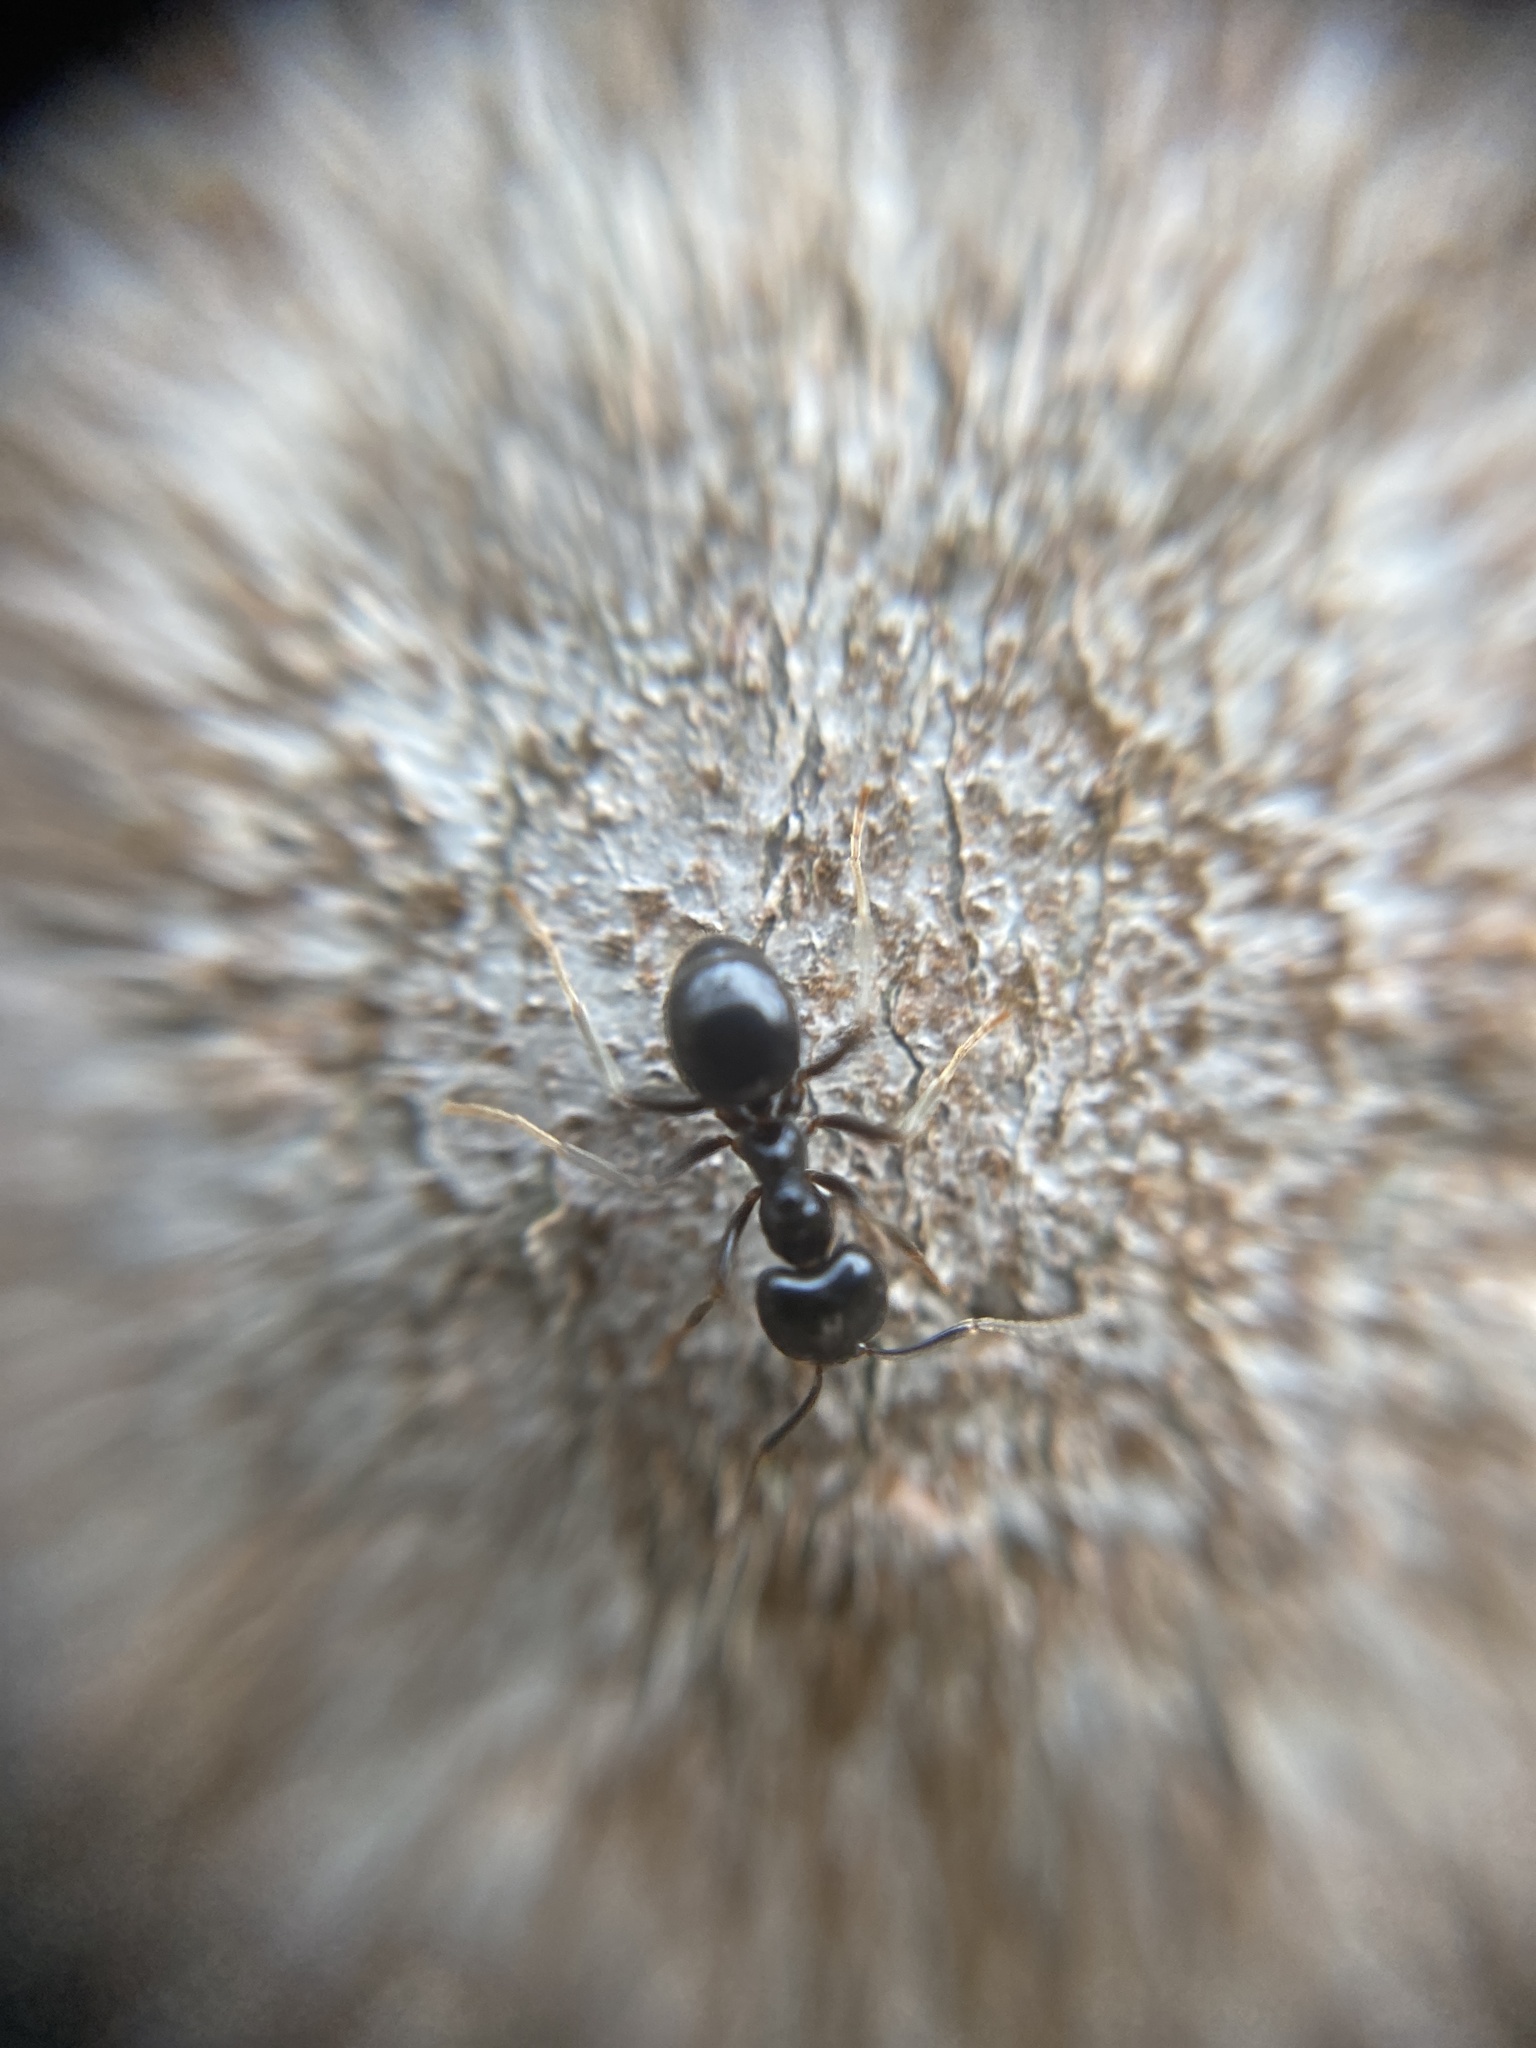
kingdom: Animalia
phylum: Arthropoda
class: Insecta
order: Hymenoptera
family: Formicidae
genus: Lasius
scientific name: Lasius fuliginosus
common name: Jet ant
